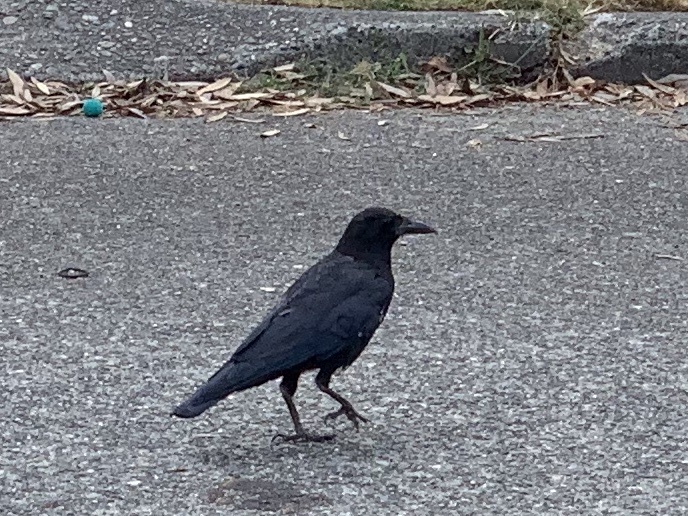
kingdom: Animalia
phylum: Chordata
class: Aves
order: Passeriformes
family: Corvidae
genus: Corvus
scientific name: Corvus brachyrhynchos
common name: American crow
